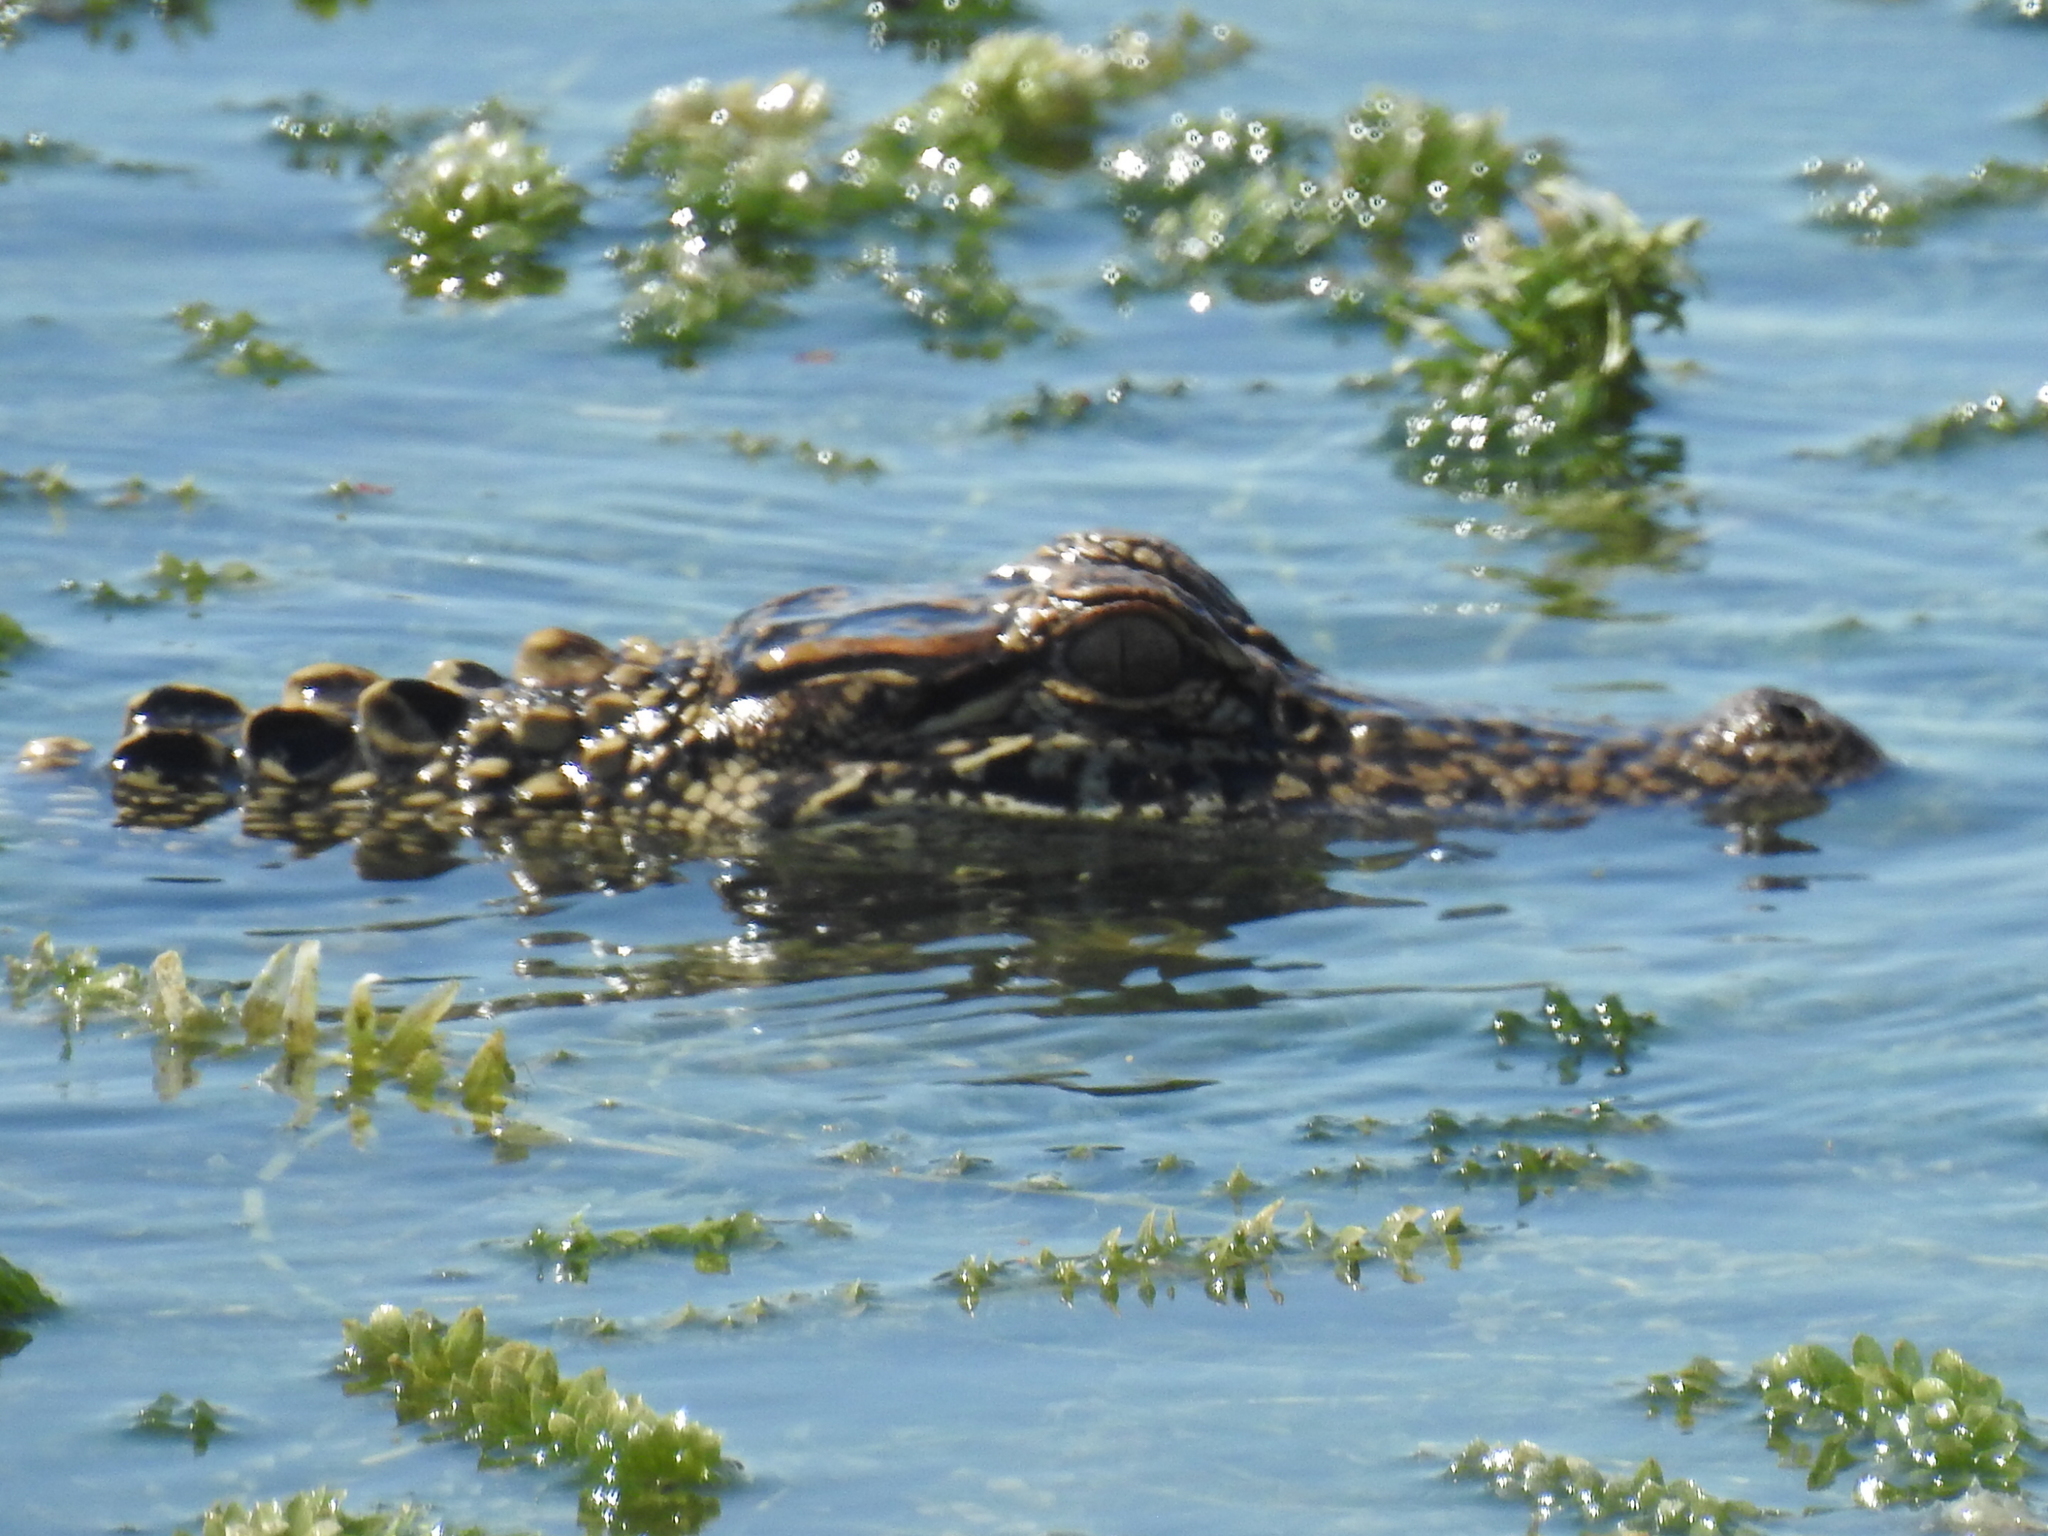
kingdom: Animalia
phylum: Chordata
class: Crocodylia
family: Alligatoridae
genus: Alligator
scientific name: Alligator mississippiensis
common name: American alligator
